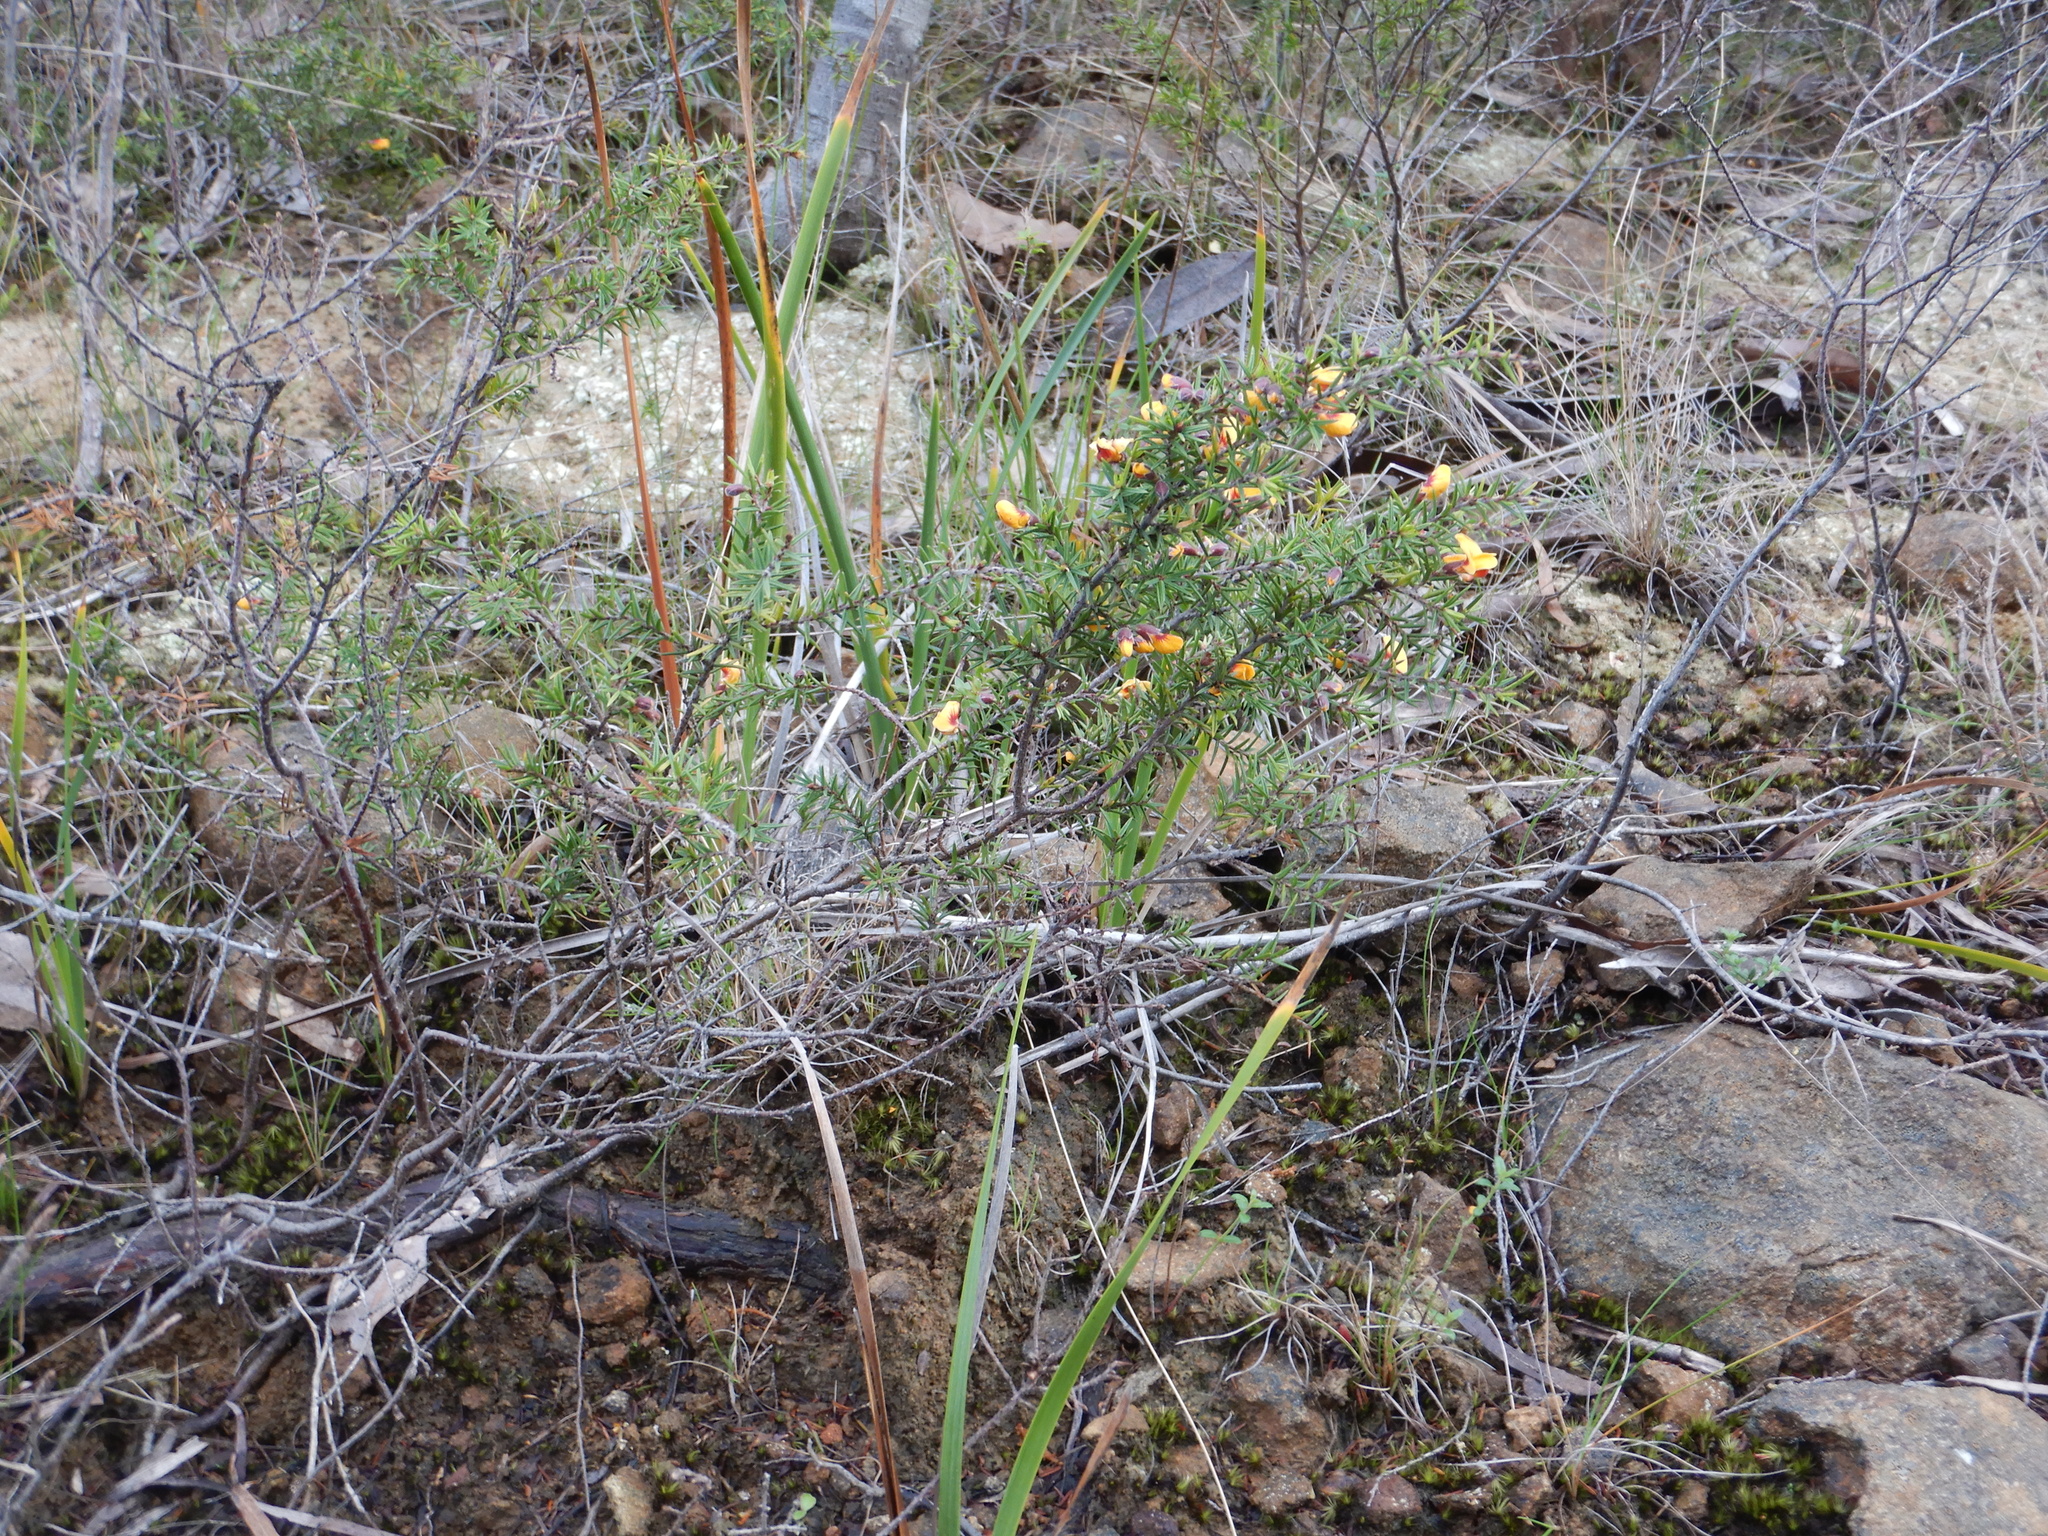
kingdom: Plantae
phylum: Tracheophyta
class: Magnoliopsida
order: Fabales
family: Fabaceae
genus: Pultenaea
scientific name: Pultenaea juniperina
